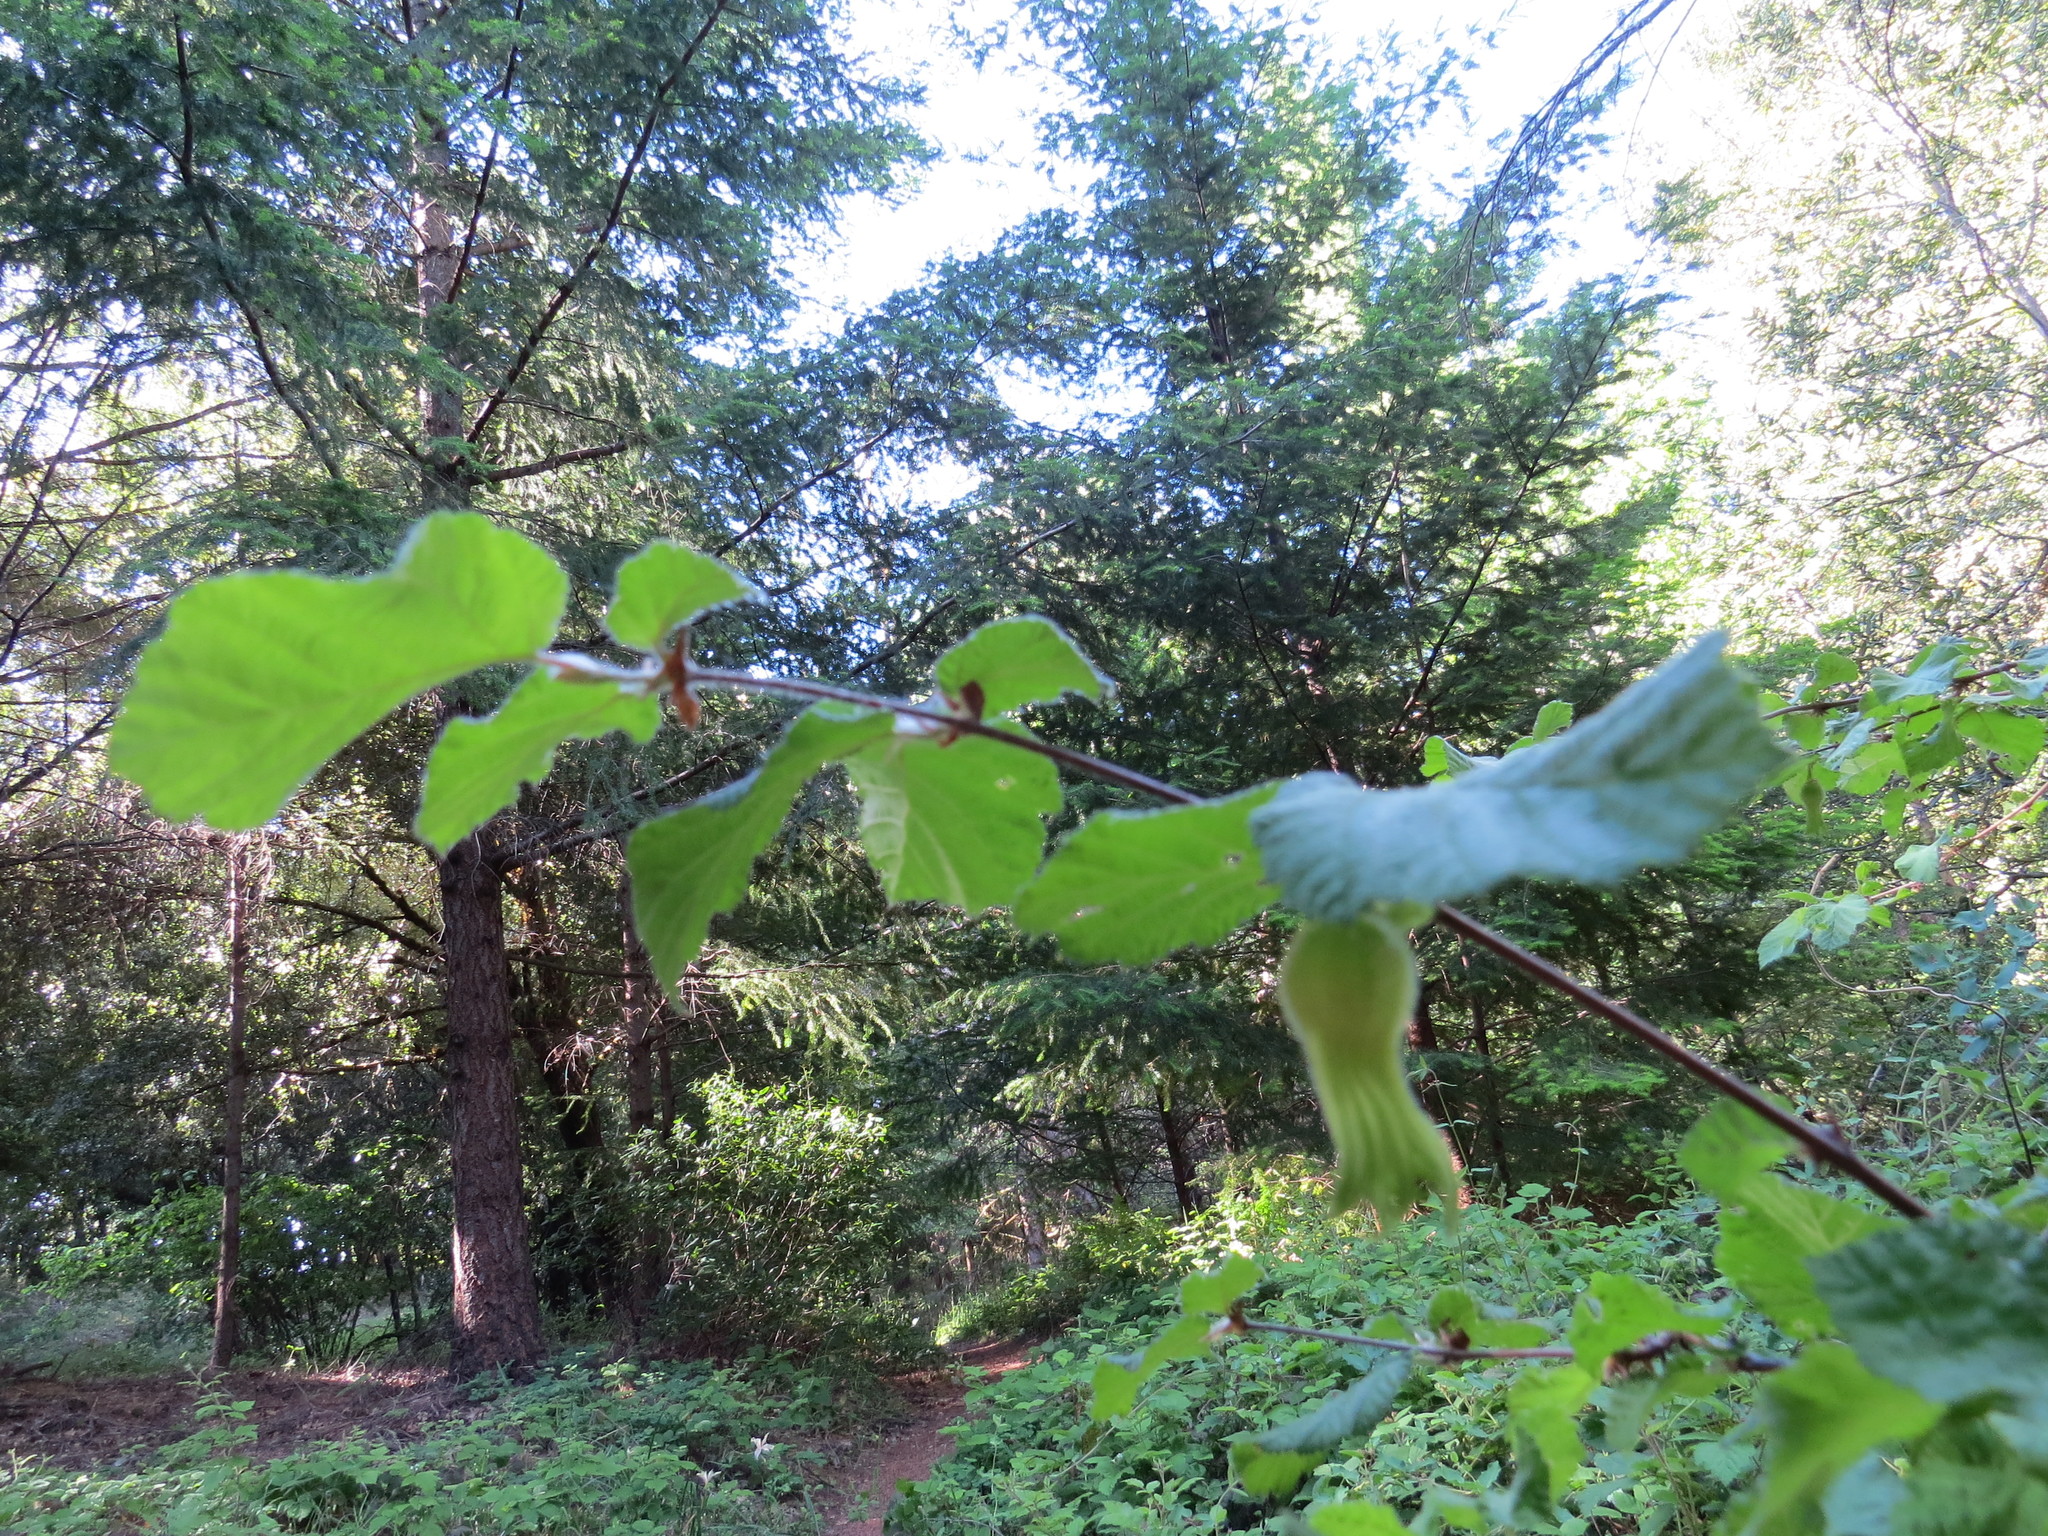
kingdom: Plantae
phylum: Tracheophyta
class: Magnoliopsida
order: Fagales
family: Betulaceae
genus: Corylus
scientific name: Corylus cornuta
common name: Beaked hazel
